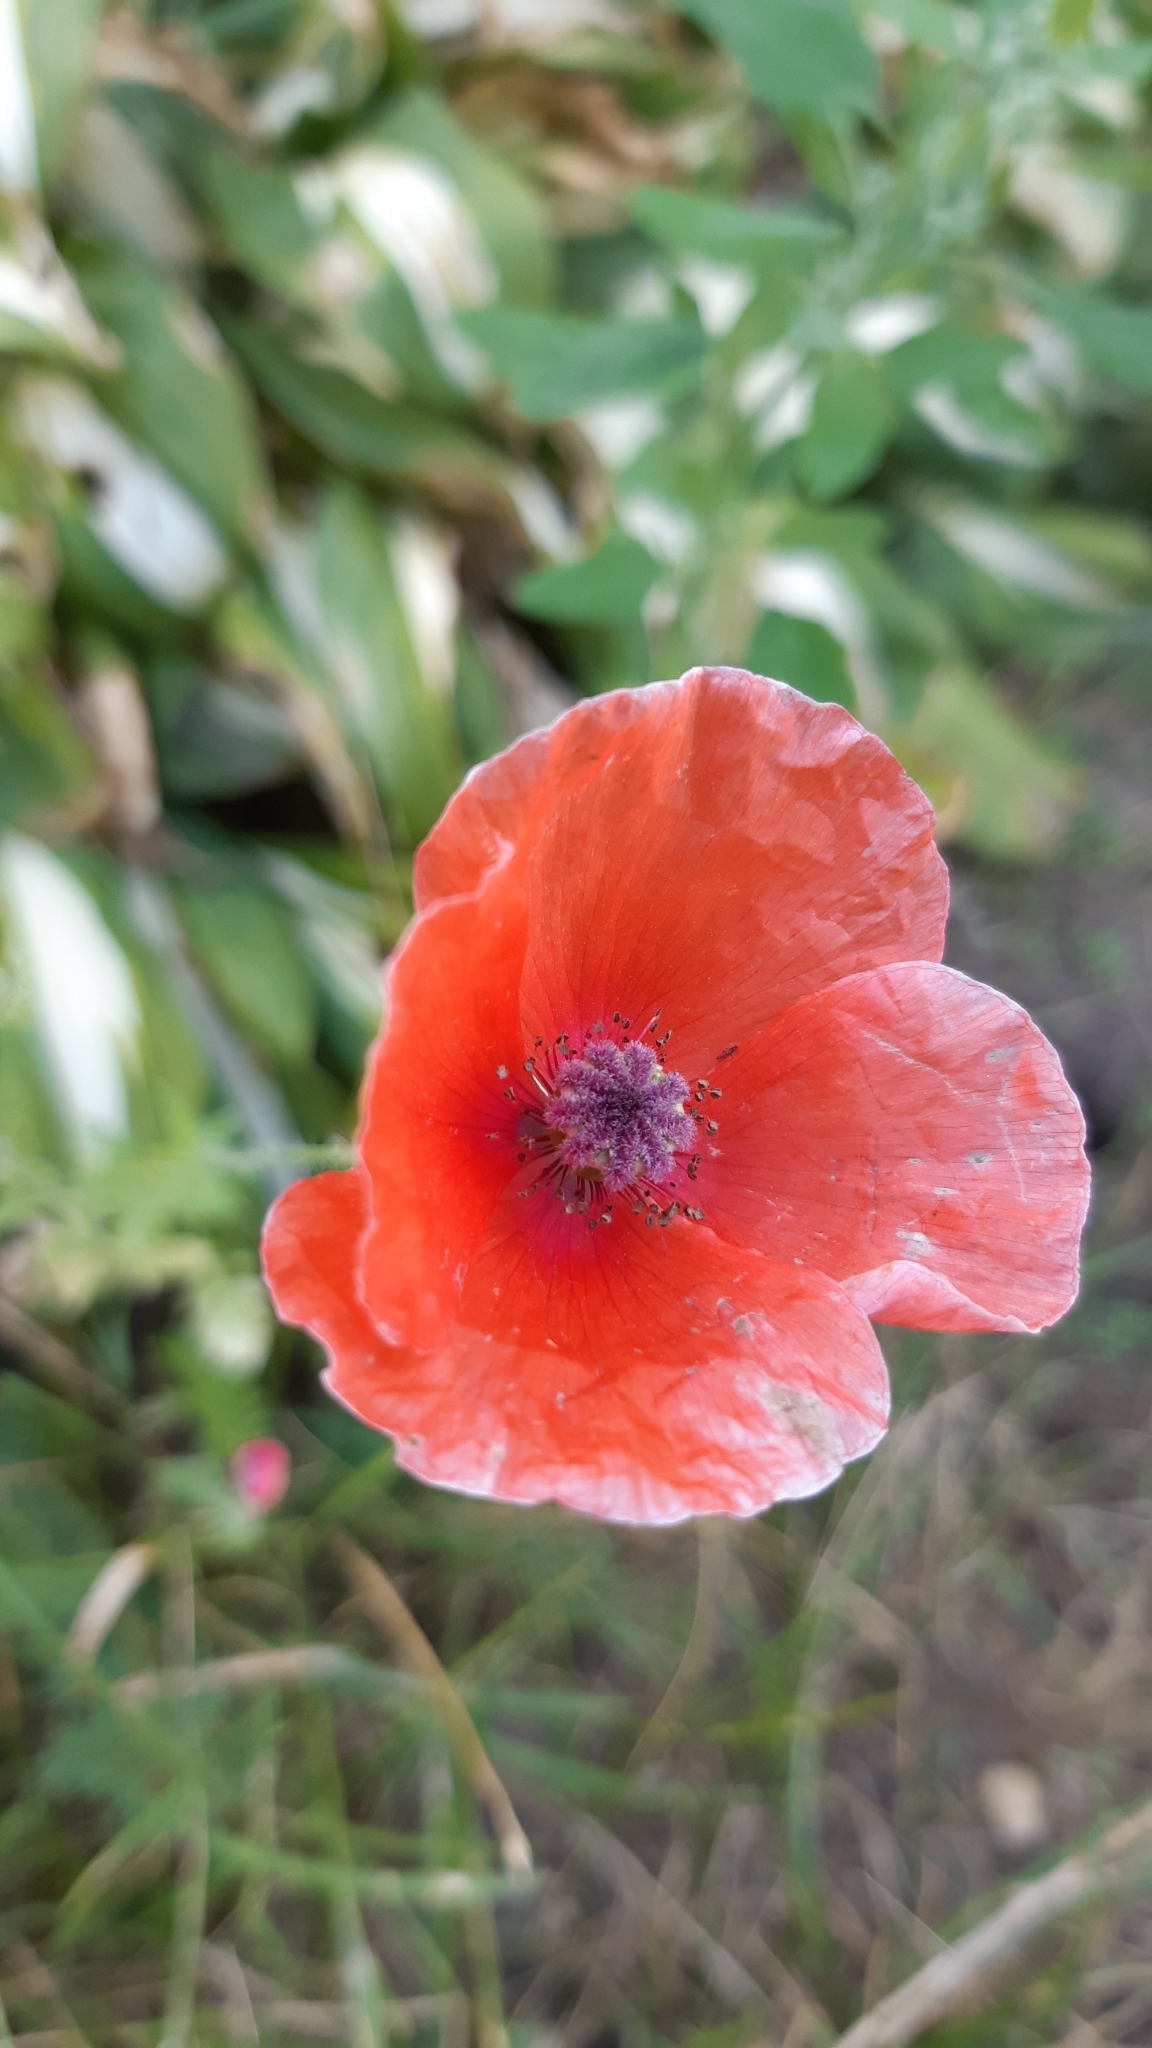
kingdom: Plantae
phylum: Tracheophyta
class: Magnoliopsida
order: Ranunculales
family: Papaveraceae
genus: Papaver
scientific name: Papaver rhoeas
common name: Corn poppy
